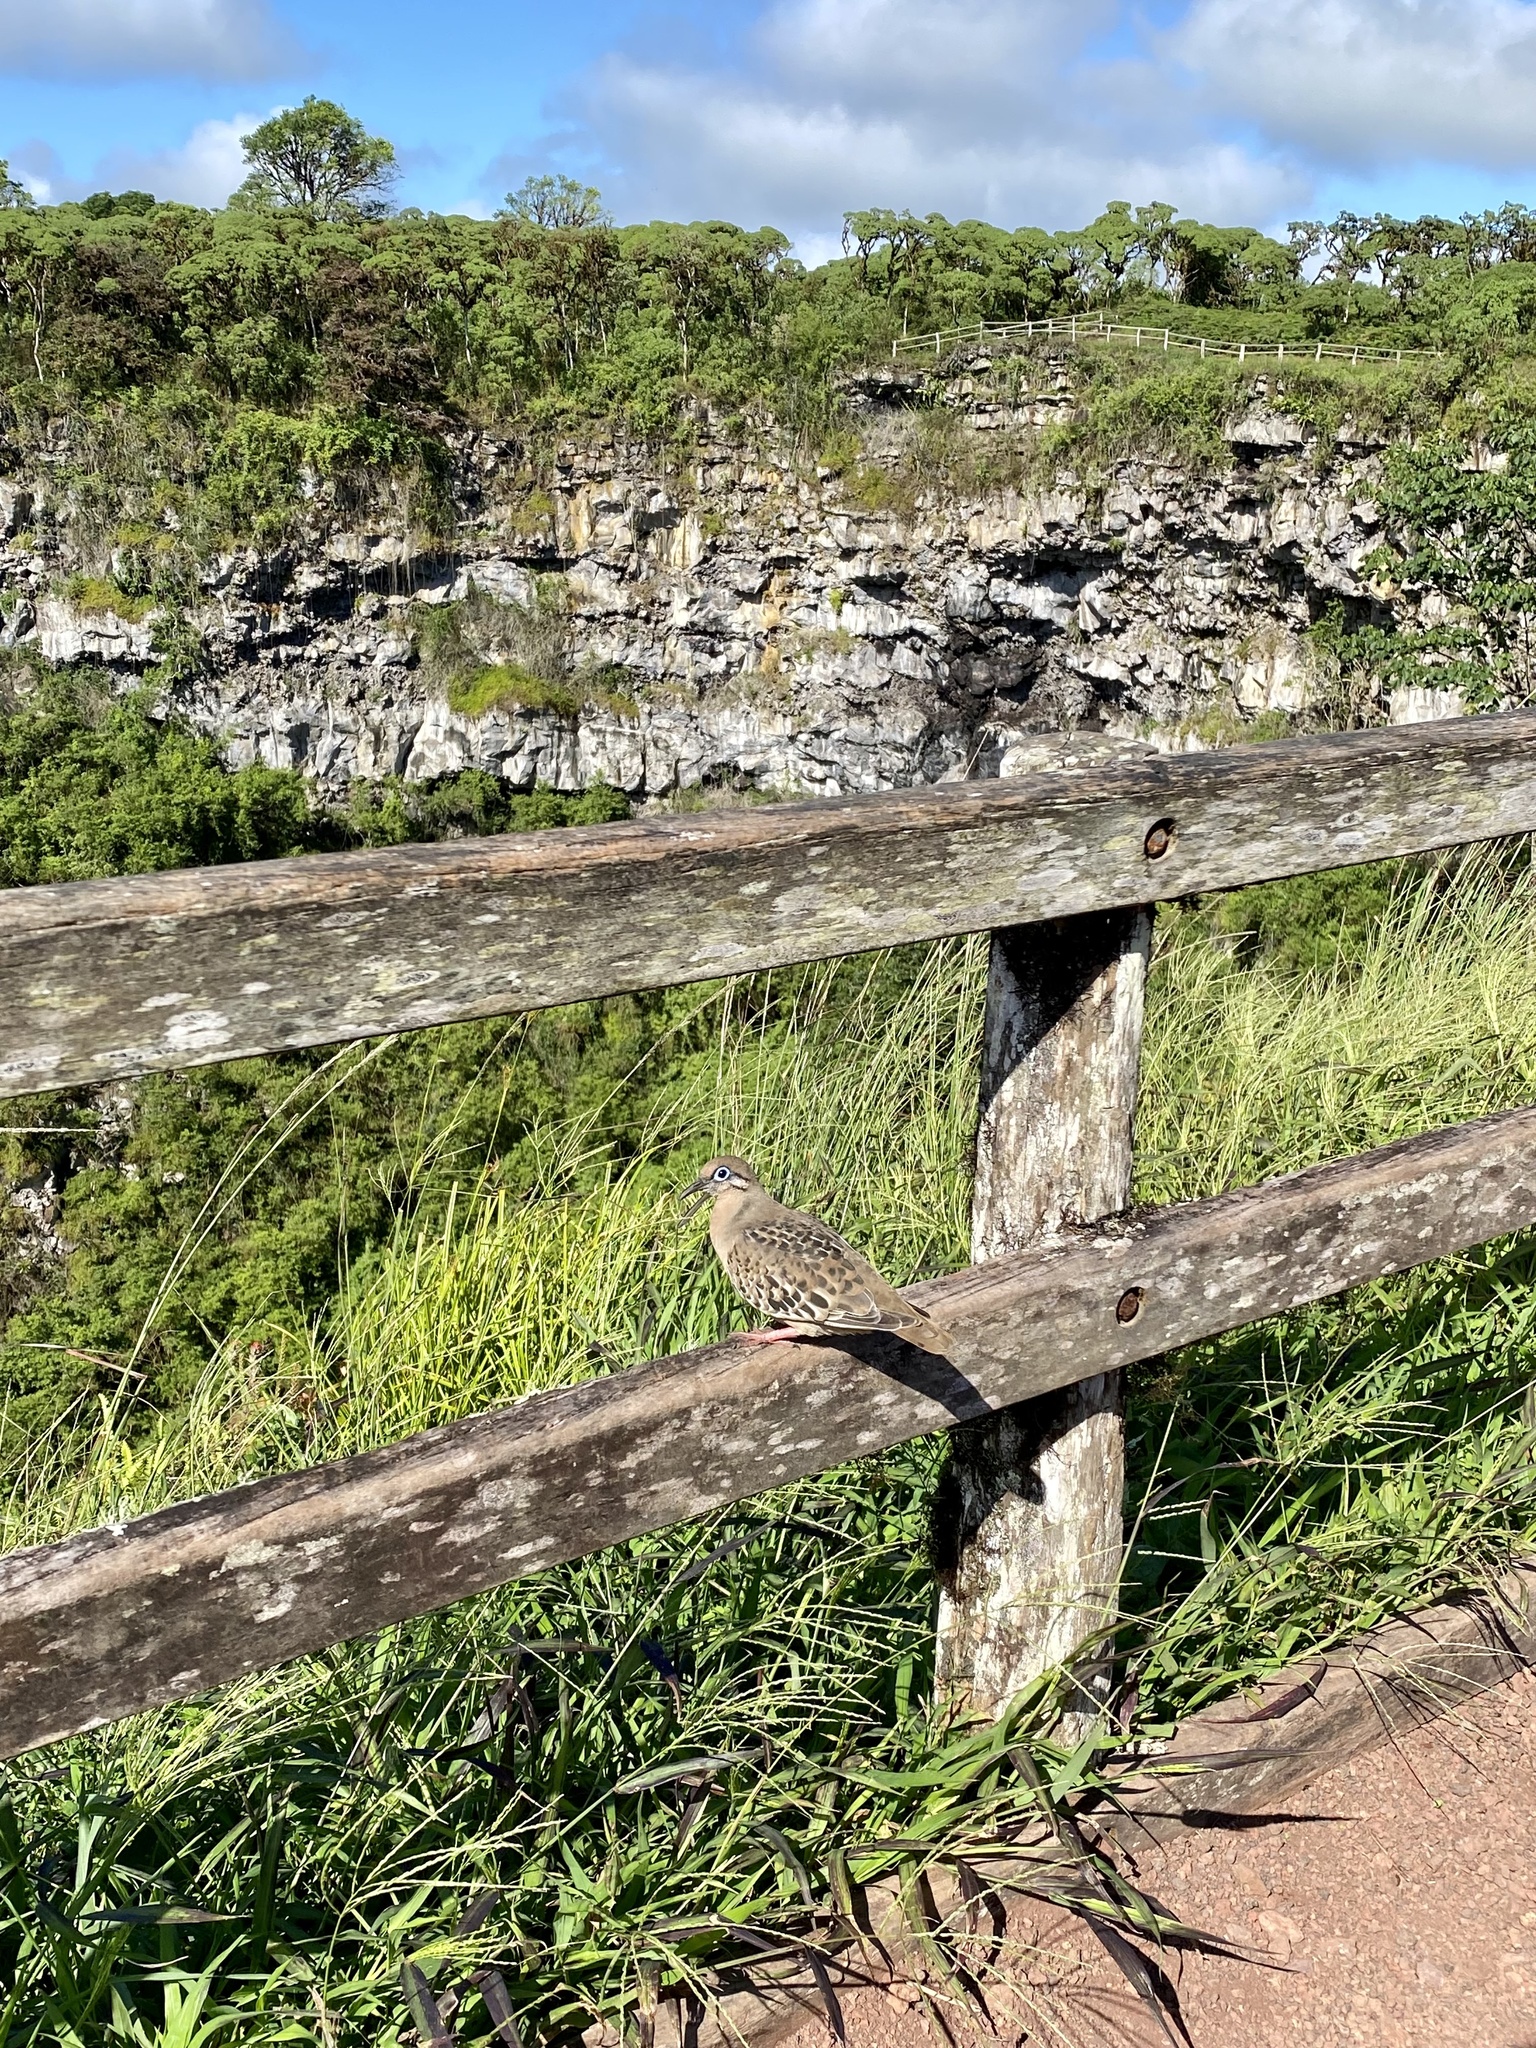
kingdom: Animalia
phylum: Chordata
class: Aves
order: Columbiformes
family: Columbidae
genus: Zenaida
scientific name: Zenaida galapagoensis
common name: Galapagos dove
